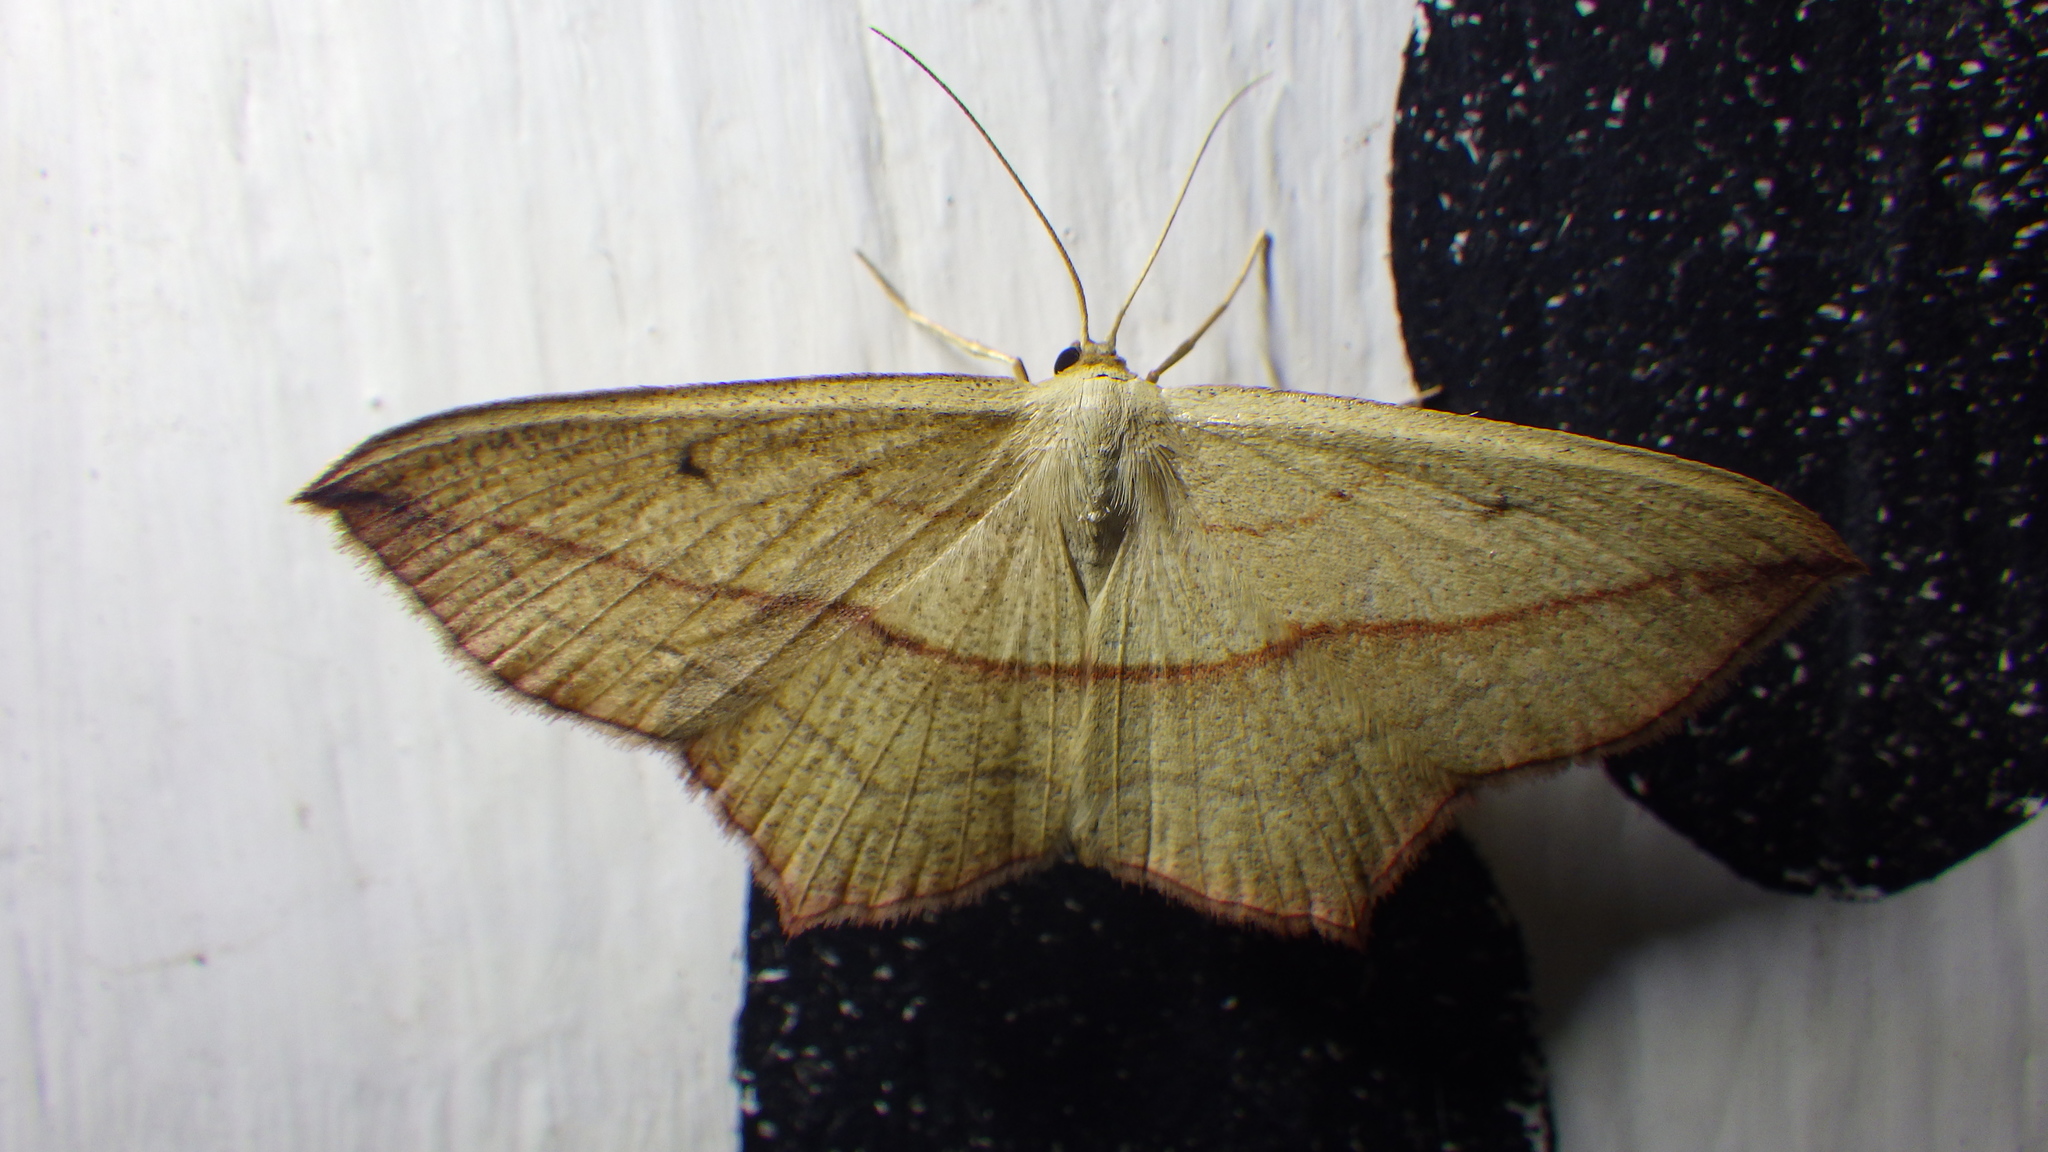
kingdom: Animalia
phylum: Arthropoda
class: Insecta
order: Lepidoptera
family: Geometridae
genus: Timandra
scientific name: Timandra comae
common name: Blood-vein
